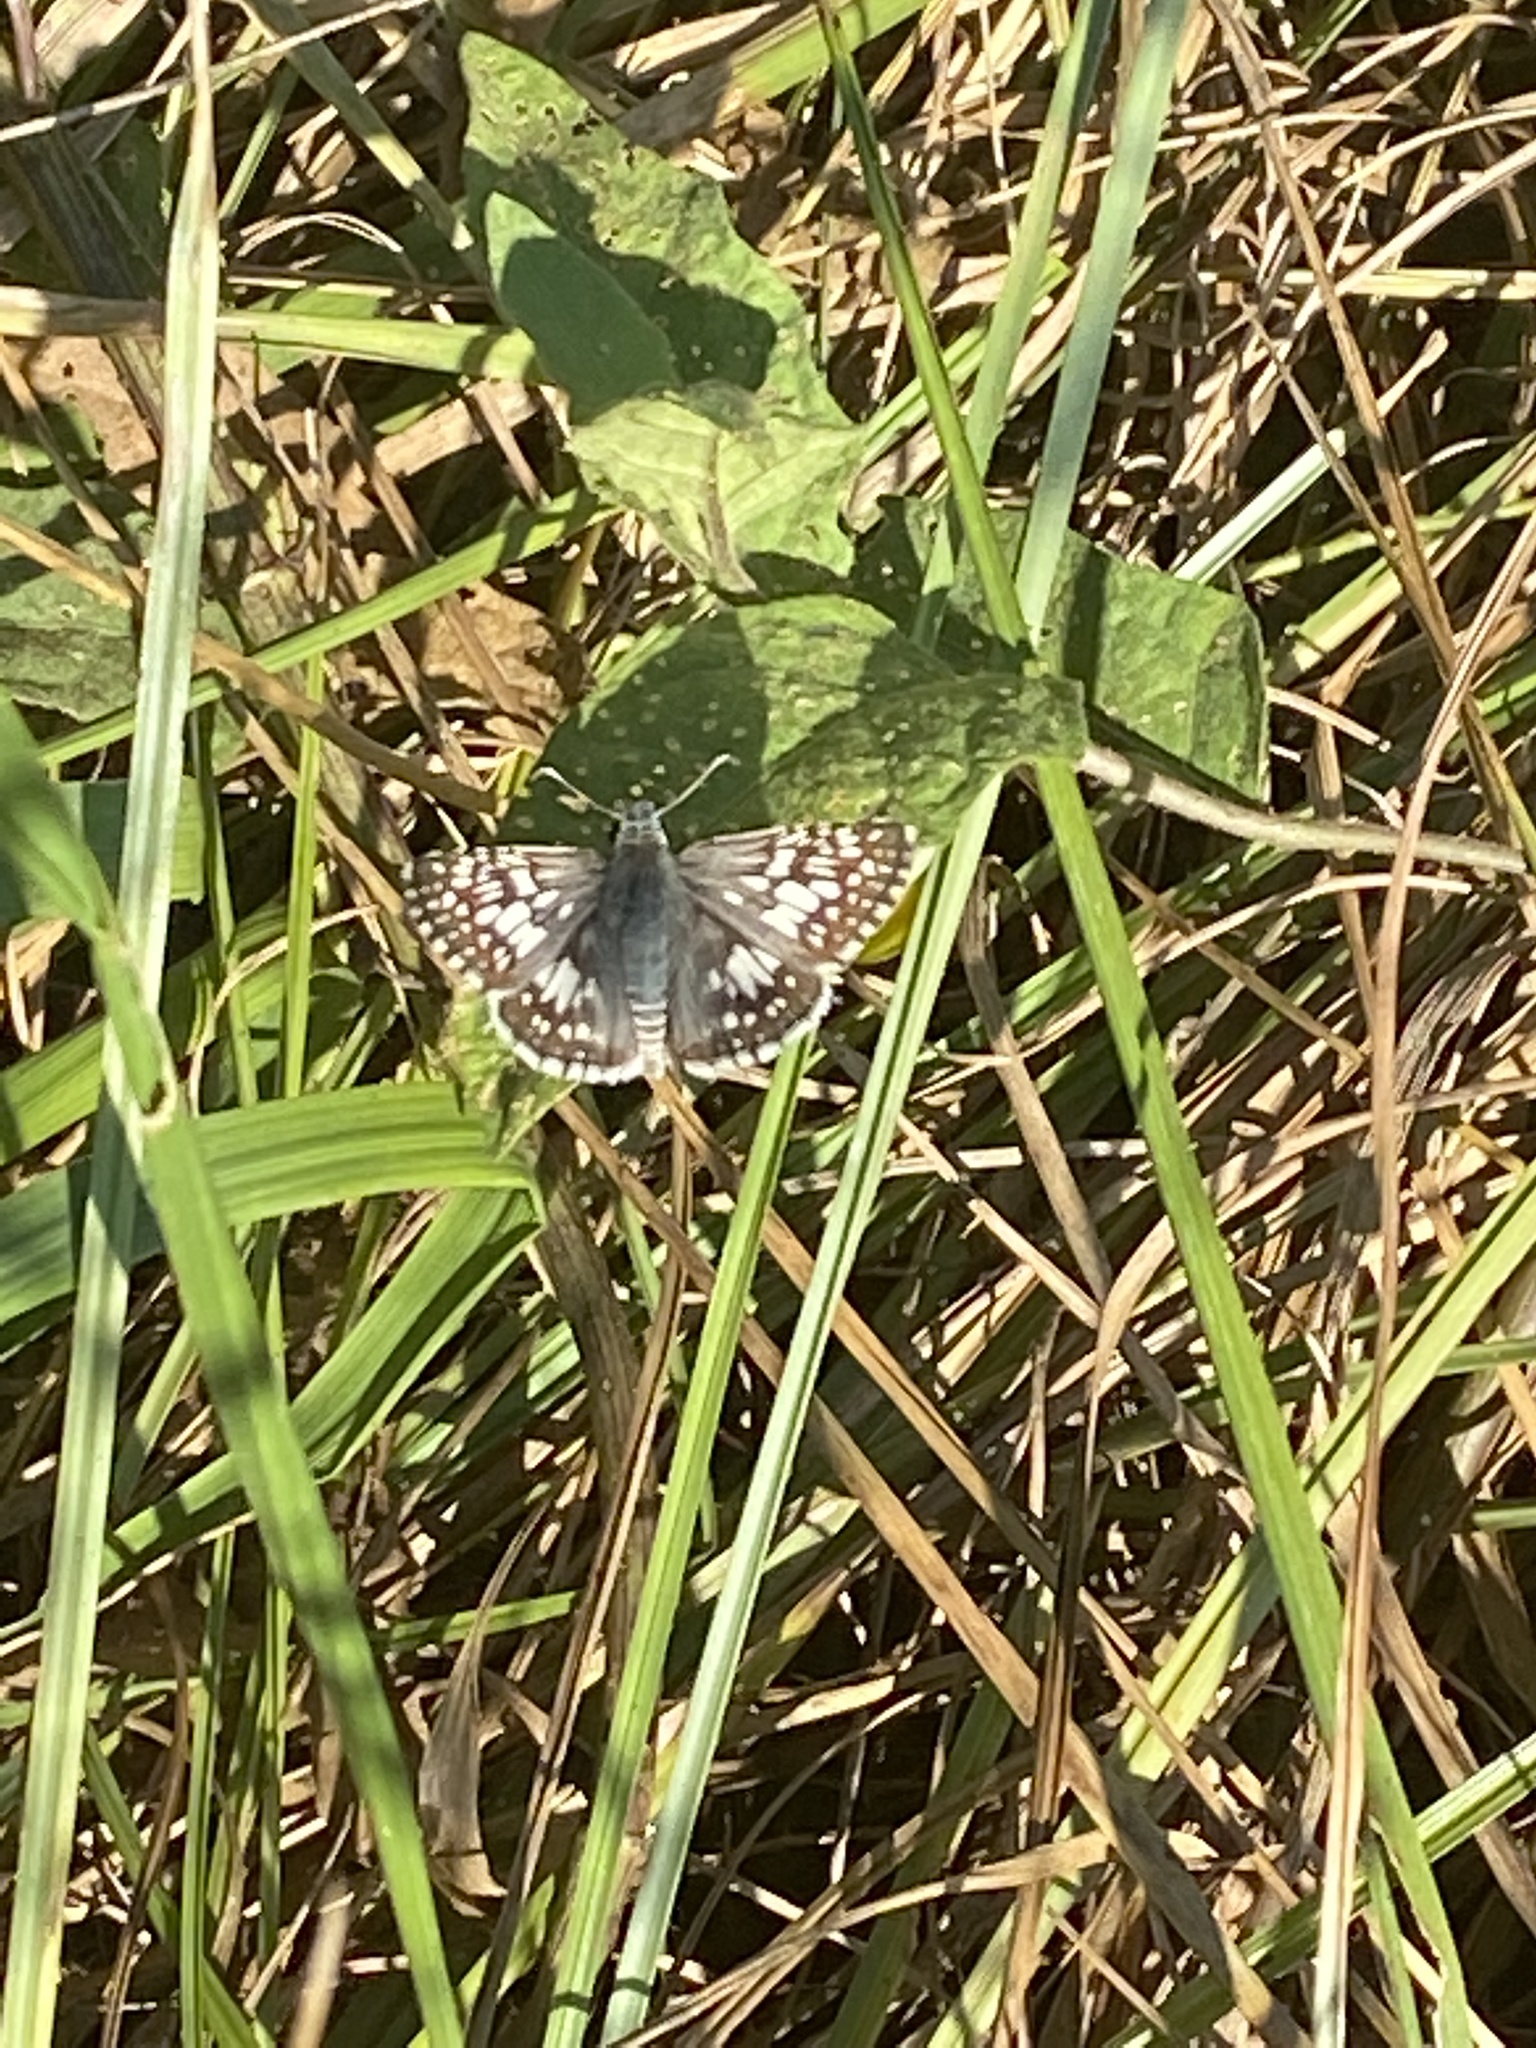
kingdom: Animalia
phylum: Arthropoda
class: Insecta
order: Lepidoptera
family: Hesperiidae
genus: Burnsius
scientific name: Burnsius communis
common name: Common checkered-skipper
